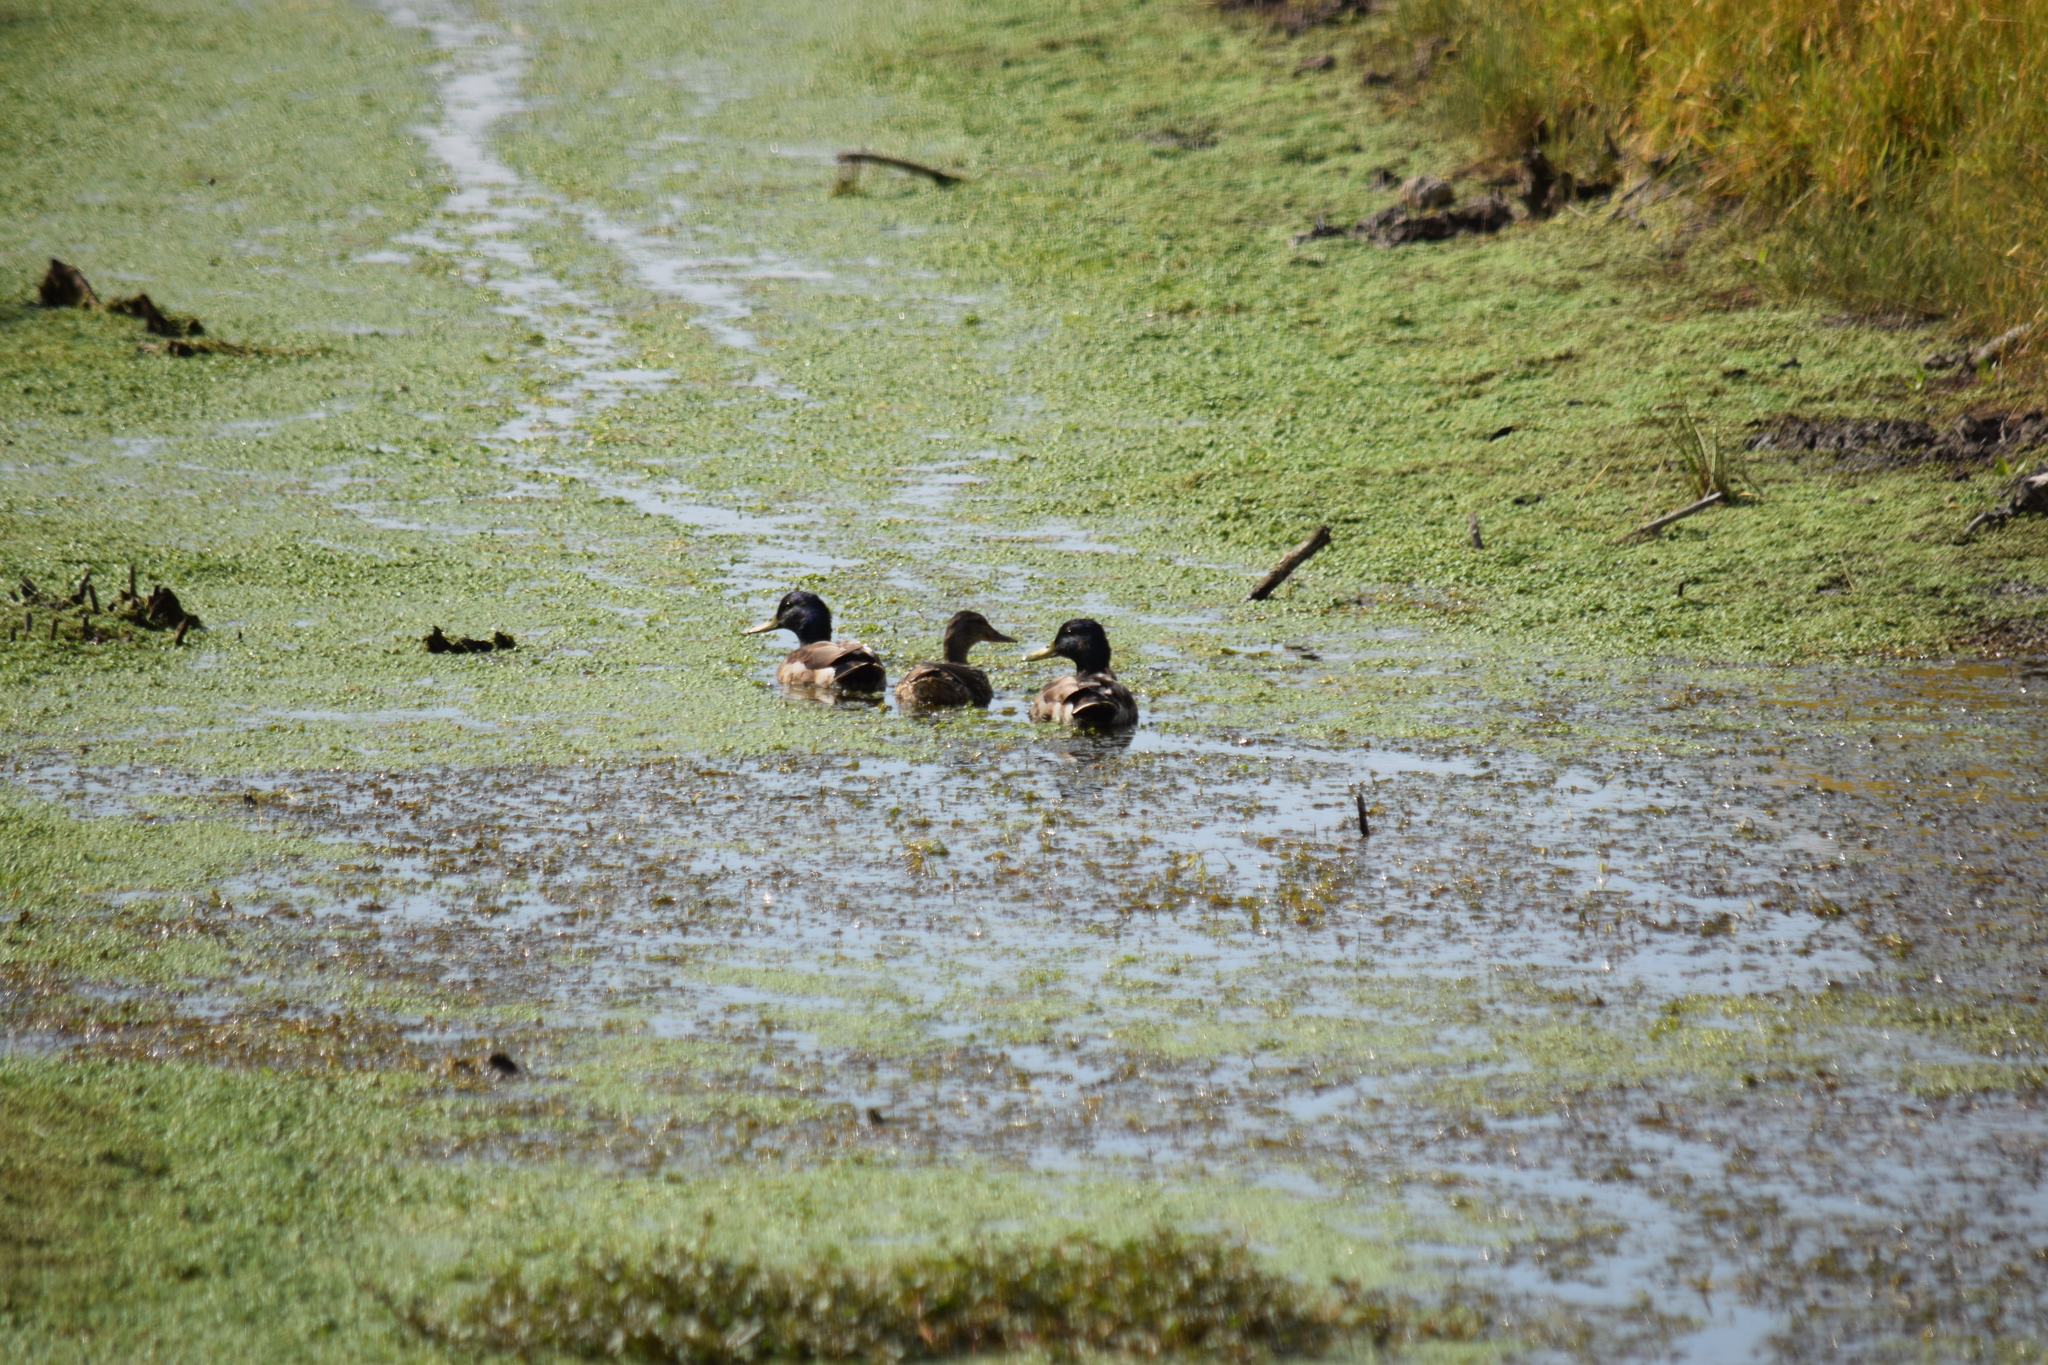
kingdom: Animalia
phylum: Chordata
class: Aves
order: Anseriformes
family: Anatidae
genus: Anas
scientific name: Anas platyrhynchos
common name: Mallard
